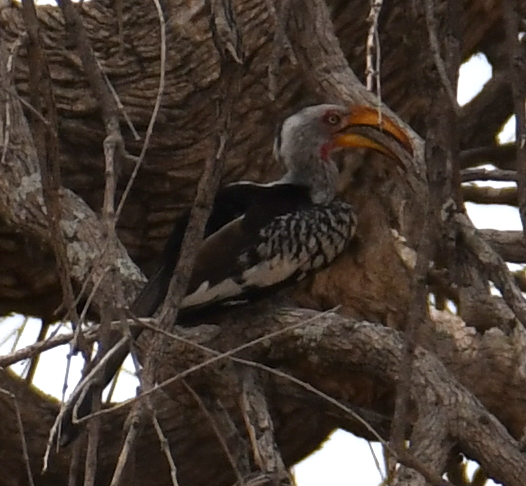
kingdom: Animalia
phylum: Chordata
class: Aves
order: Bucerotiformes
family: Bucerotidae
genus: Tockus
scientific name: Tockus leucomelas
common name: Southern yellow-billed hornbill
